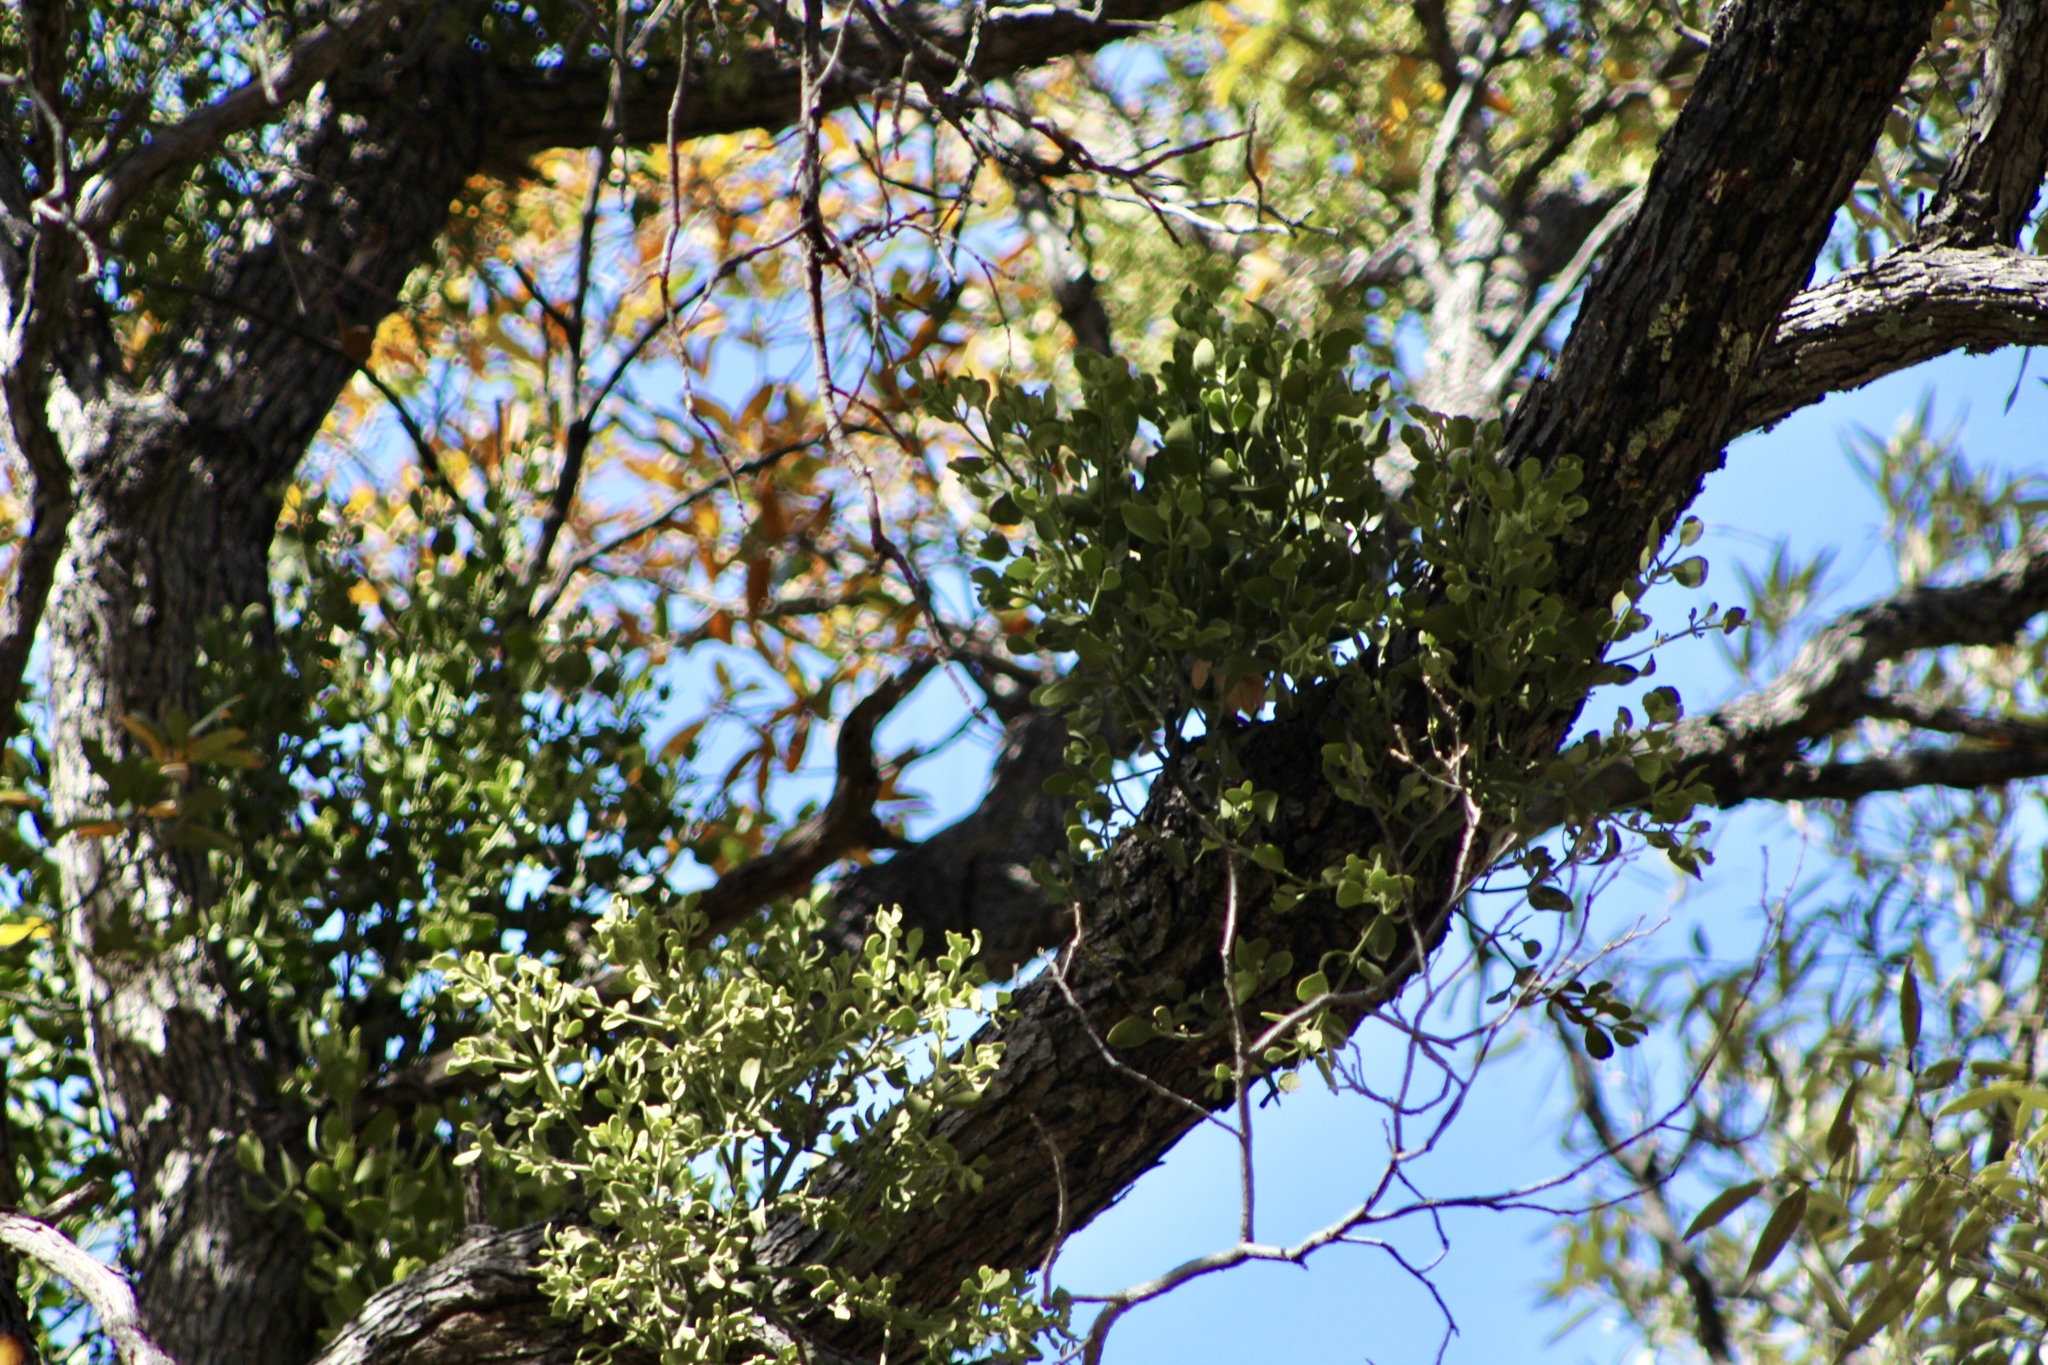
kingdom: Plantae
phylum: Tracheophyta
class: Magnoliopsida
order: Santalales
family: Viscaceae
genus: Phoradendron
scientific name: Phoradendron coryae
